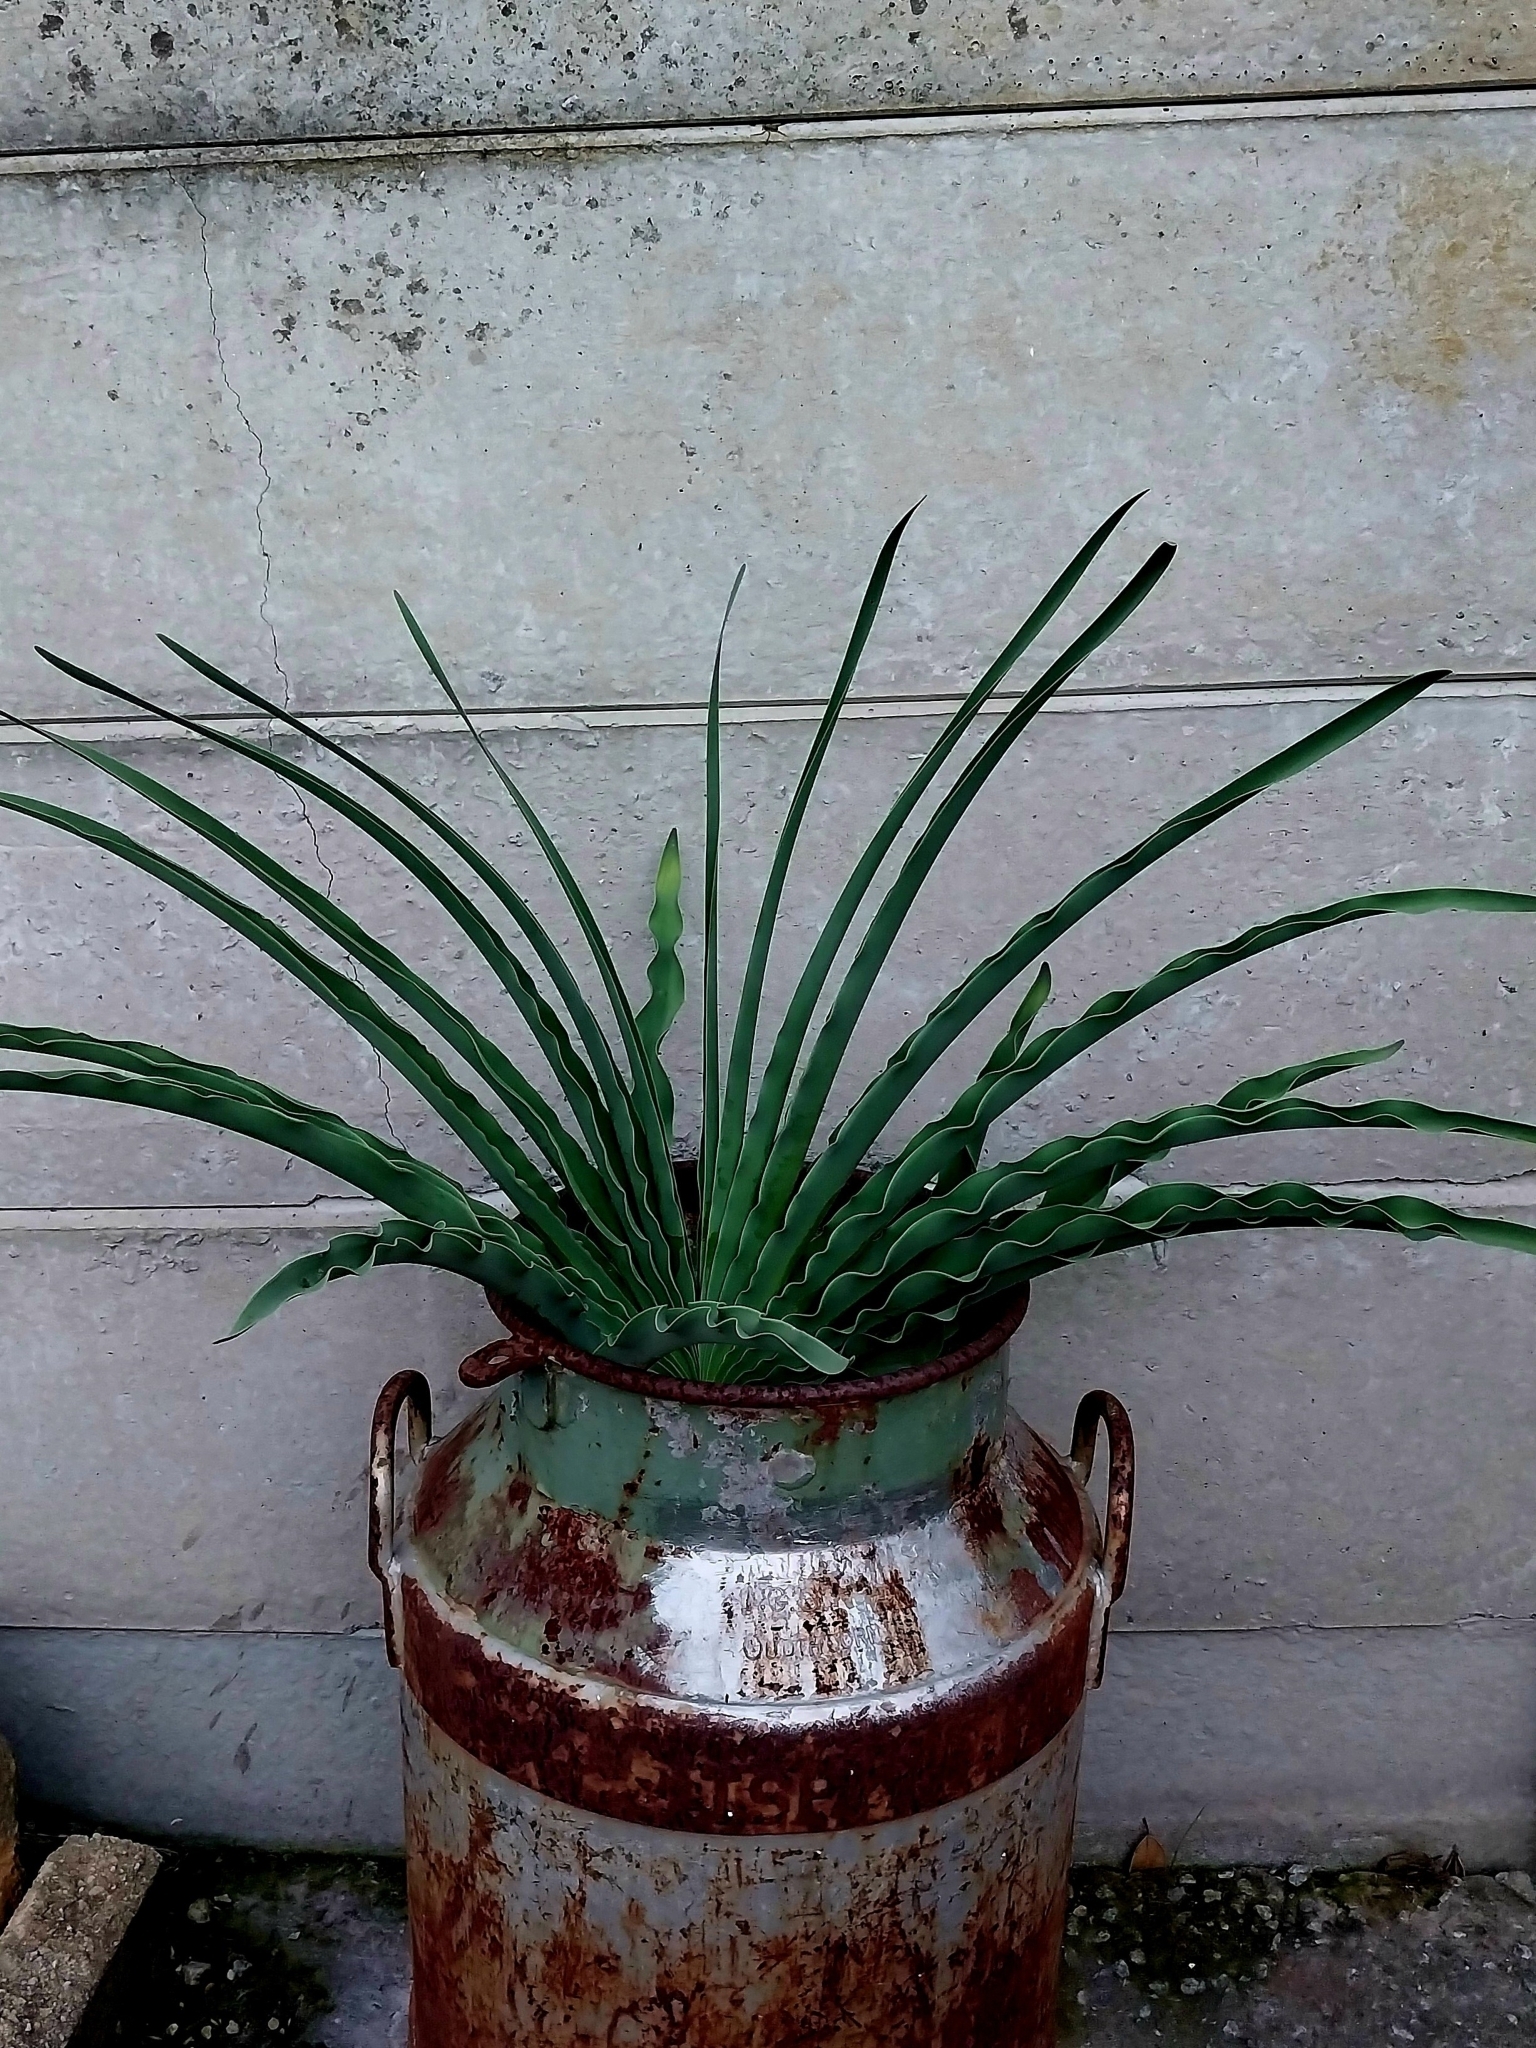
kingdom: Plantae
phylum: Tracheophyta
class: Liliopsida
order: Asparagales
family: Amaryllidaceae
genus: Boophone
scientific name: Boophone disticha
